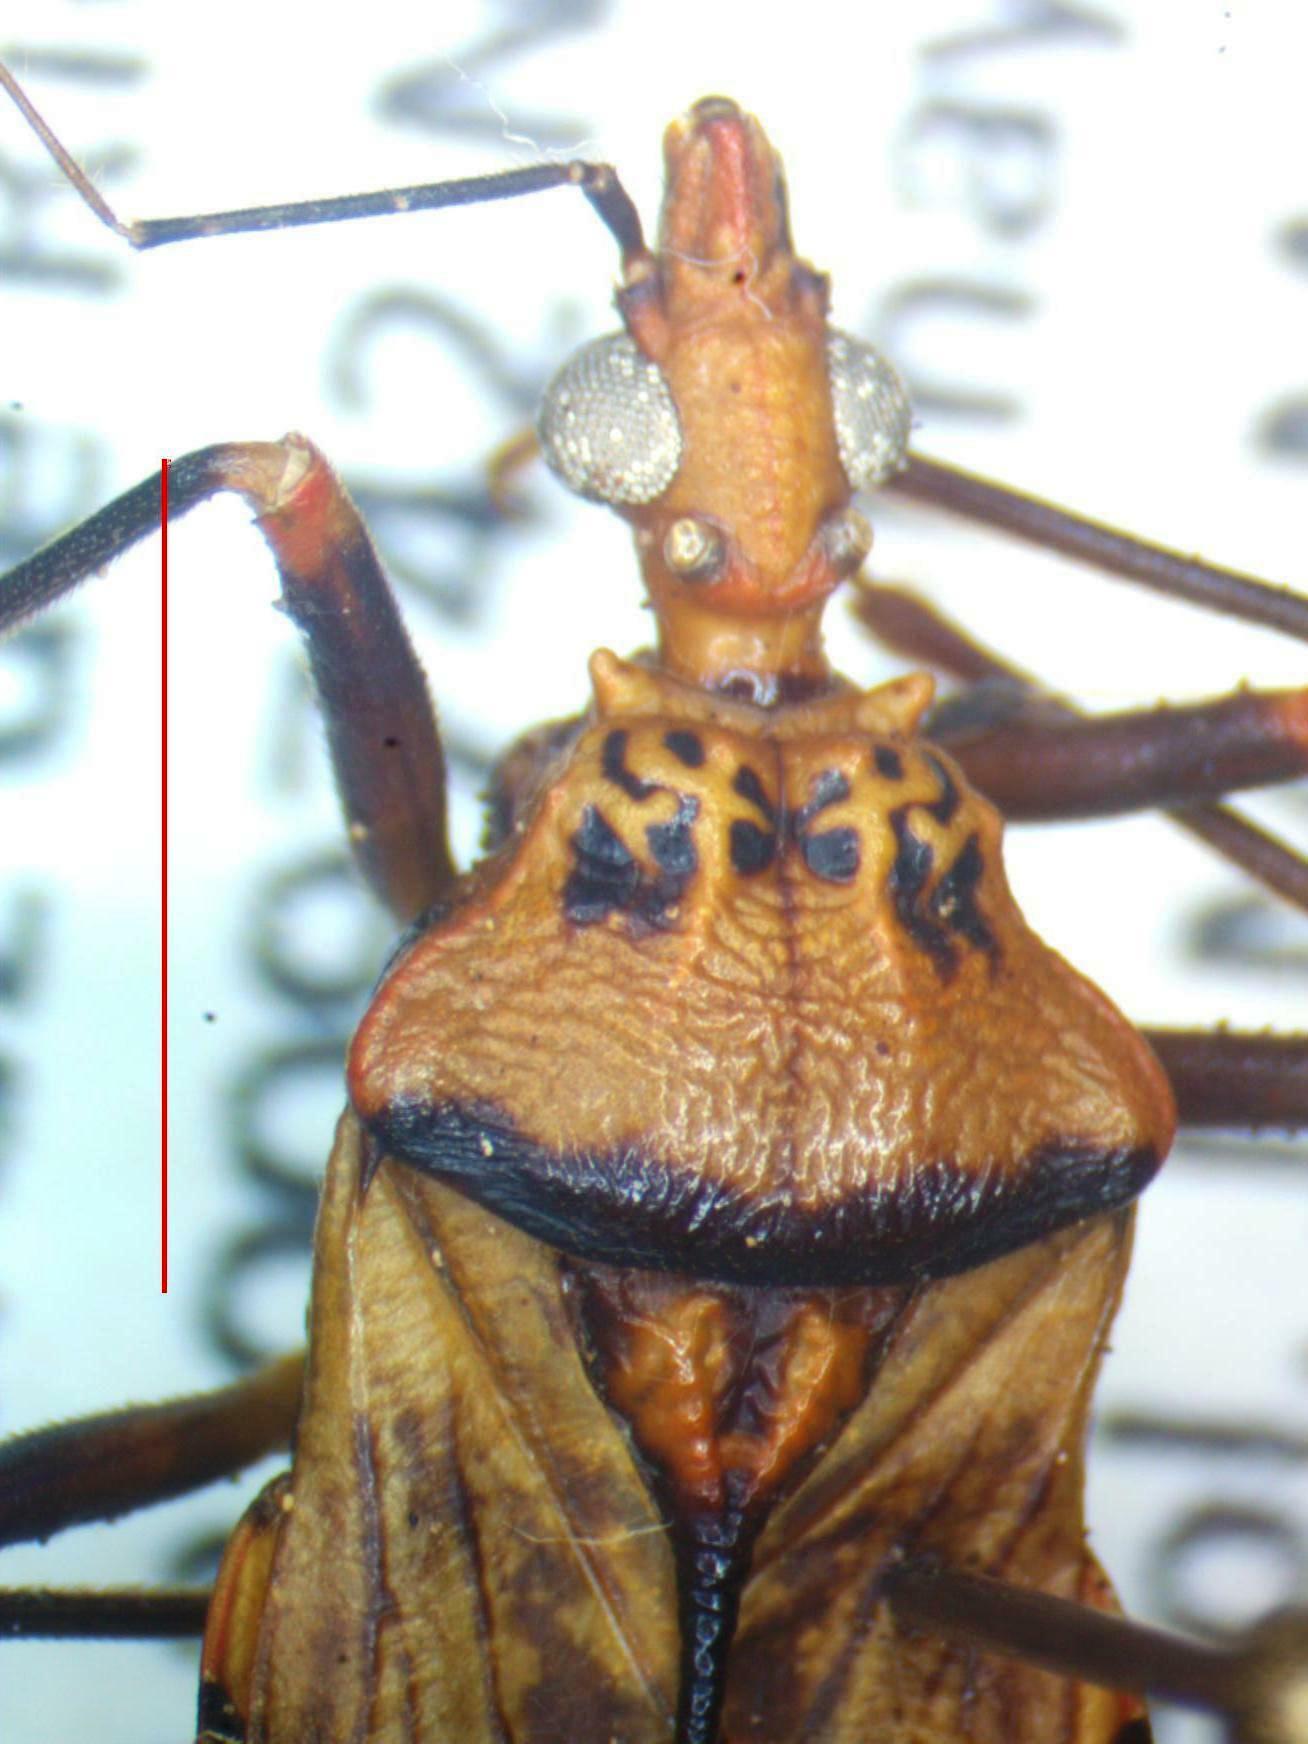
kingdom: Animalia
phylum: Arthropoda
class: Insecta
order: Hemiptera
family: Reduviidae
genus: Panstrongylus
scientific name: Panstrongylus geniculatus
